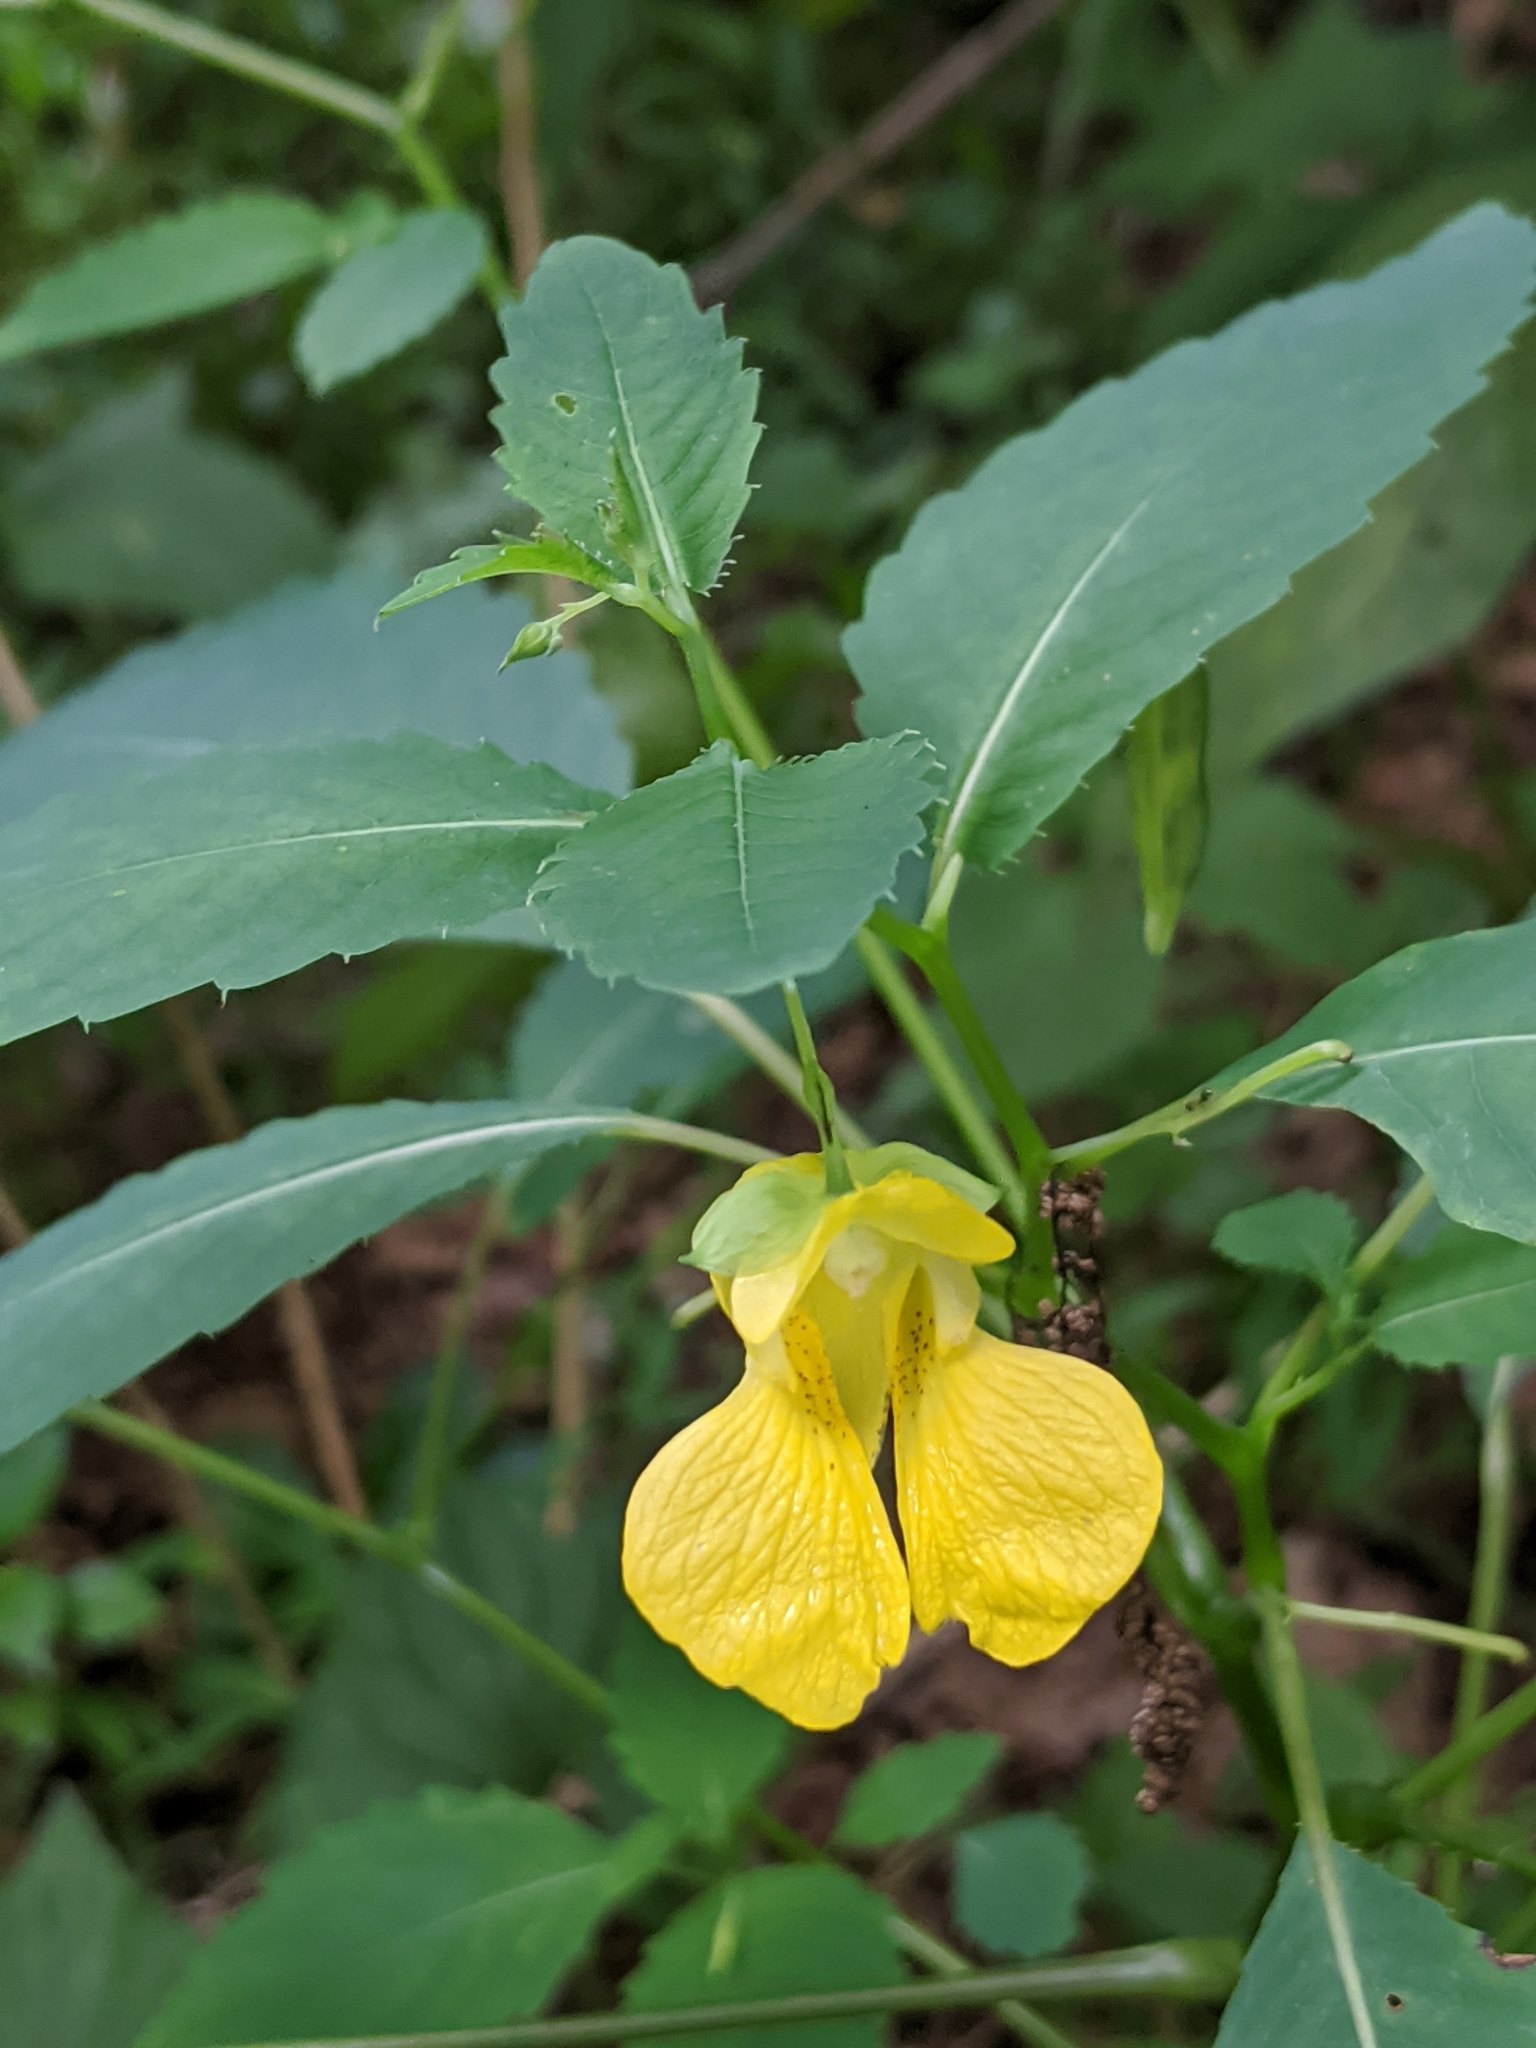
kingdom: Plantae
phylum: Tracheophyta
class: Magnoliopsida
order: Ericales
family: Balsaminaceae
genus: Impatiens
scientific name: Impatiens pallida
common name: Pale snapweed
